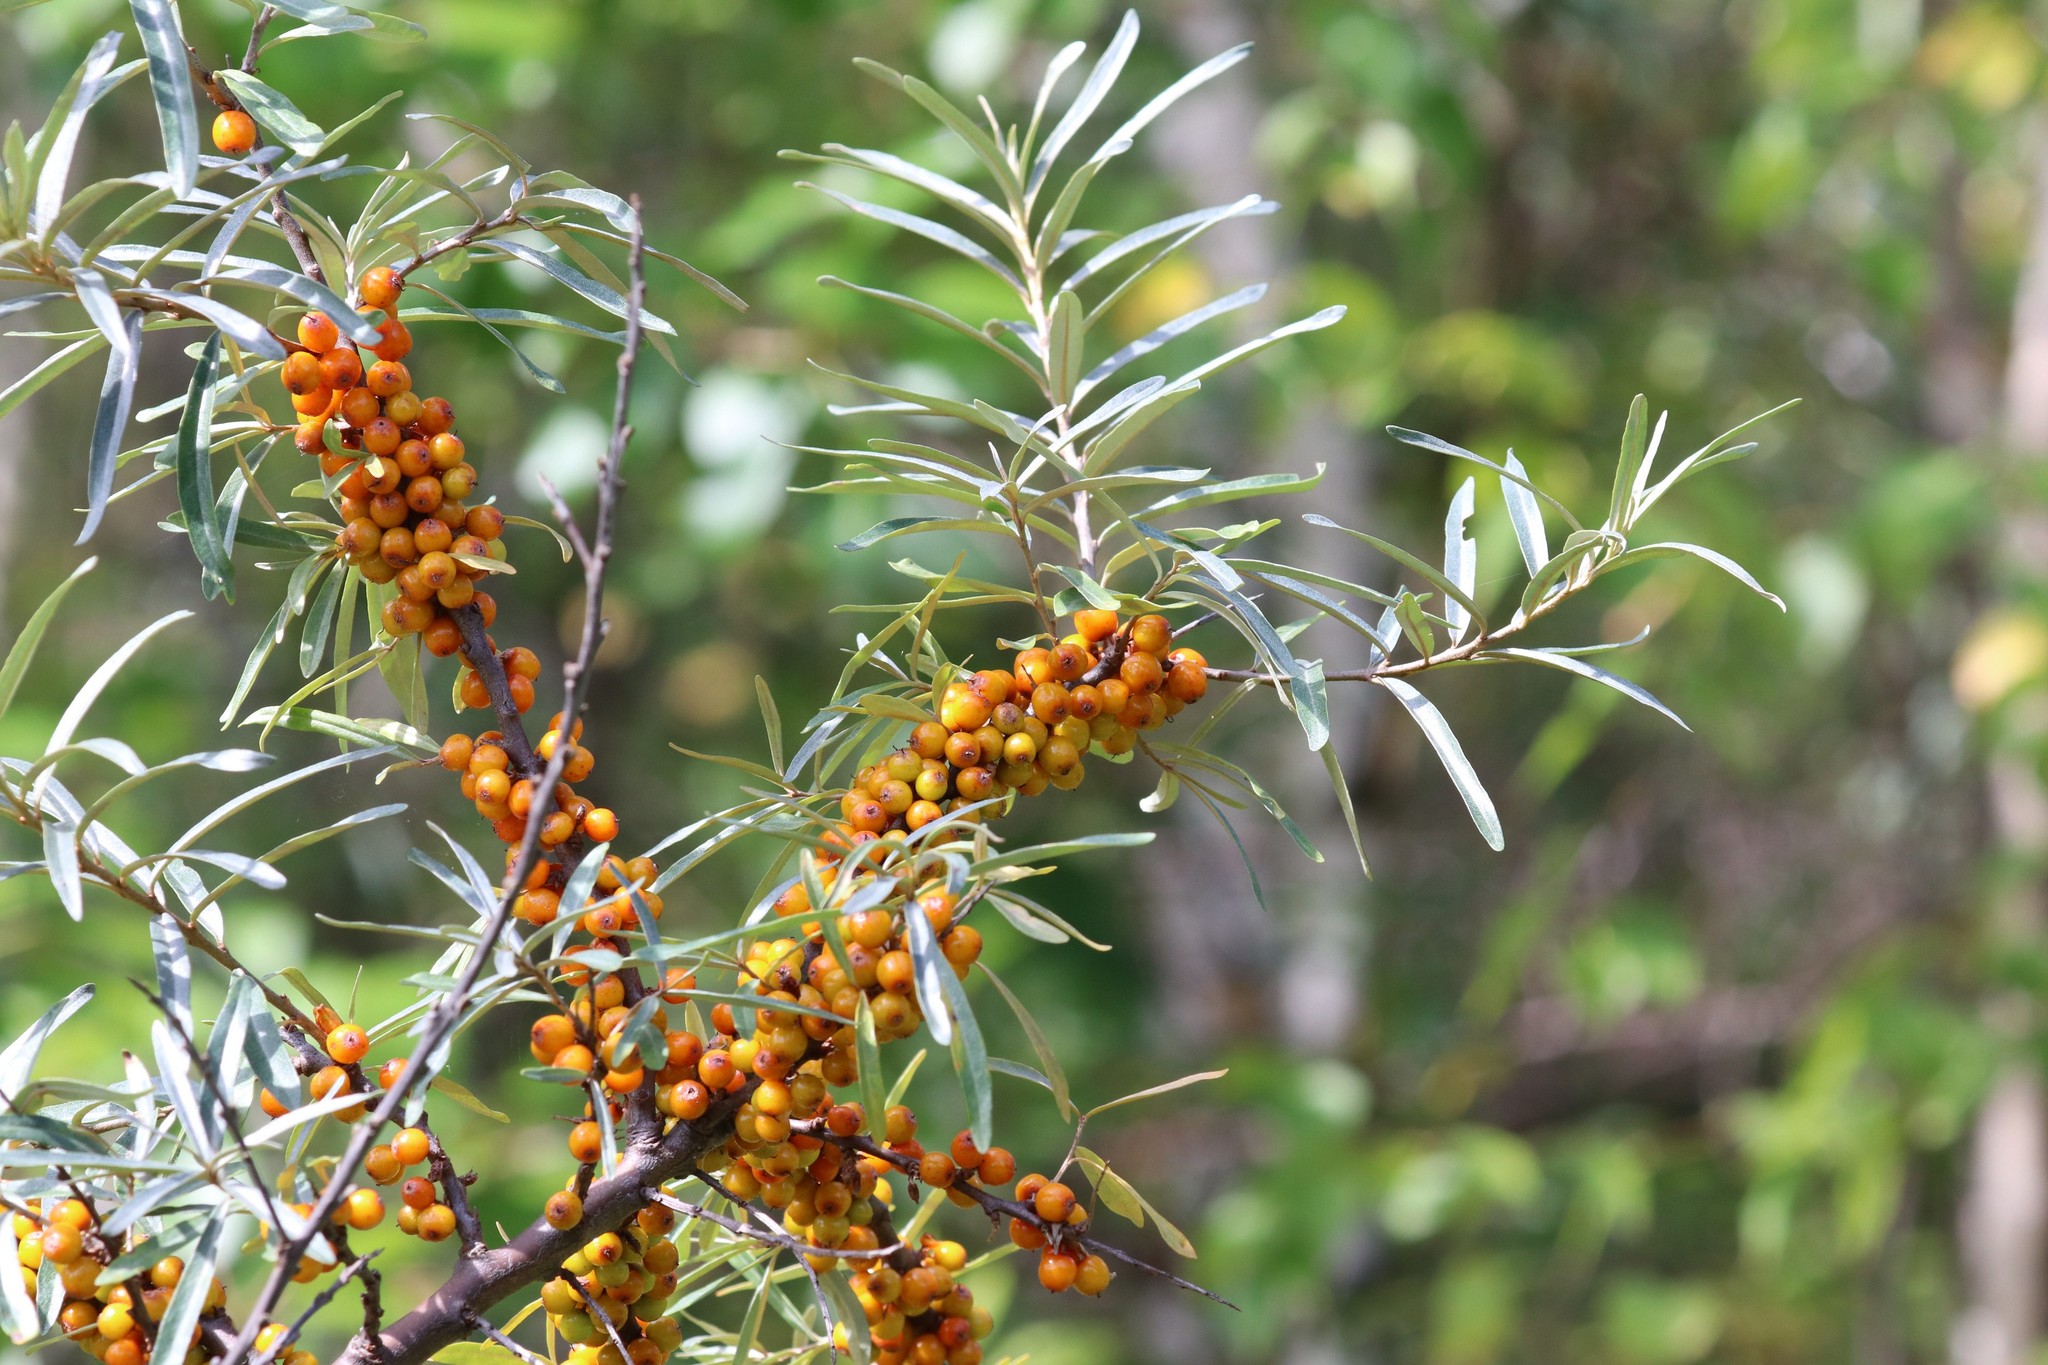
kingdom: Plantae
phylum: Tracheophyta
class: Magnoliopsida
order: Rosales
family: Elaeagnaceae
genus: Hippophae
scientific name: Hippophae rhamnoides
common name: Sea-buckthorn
